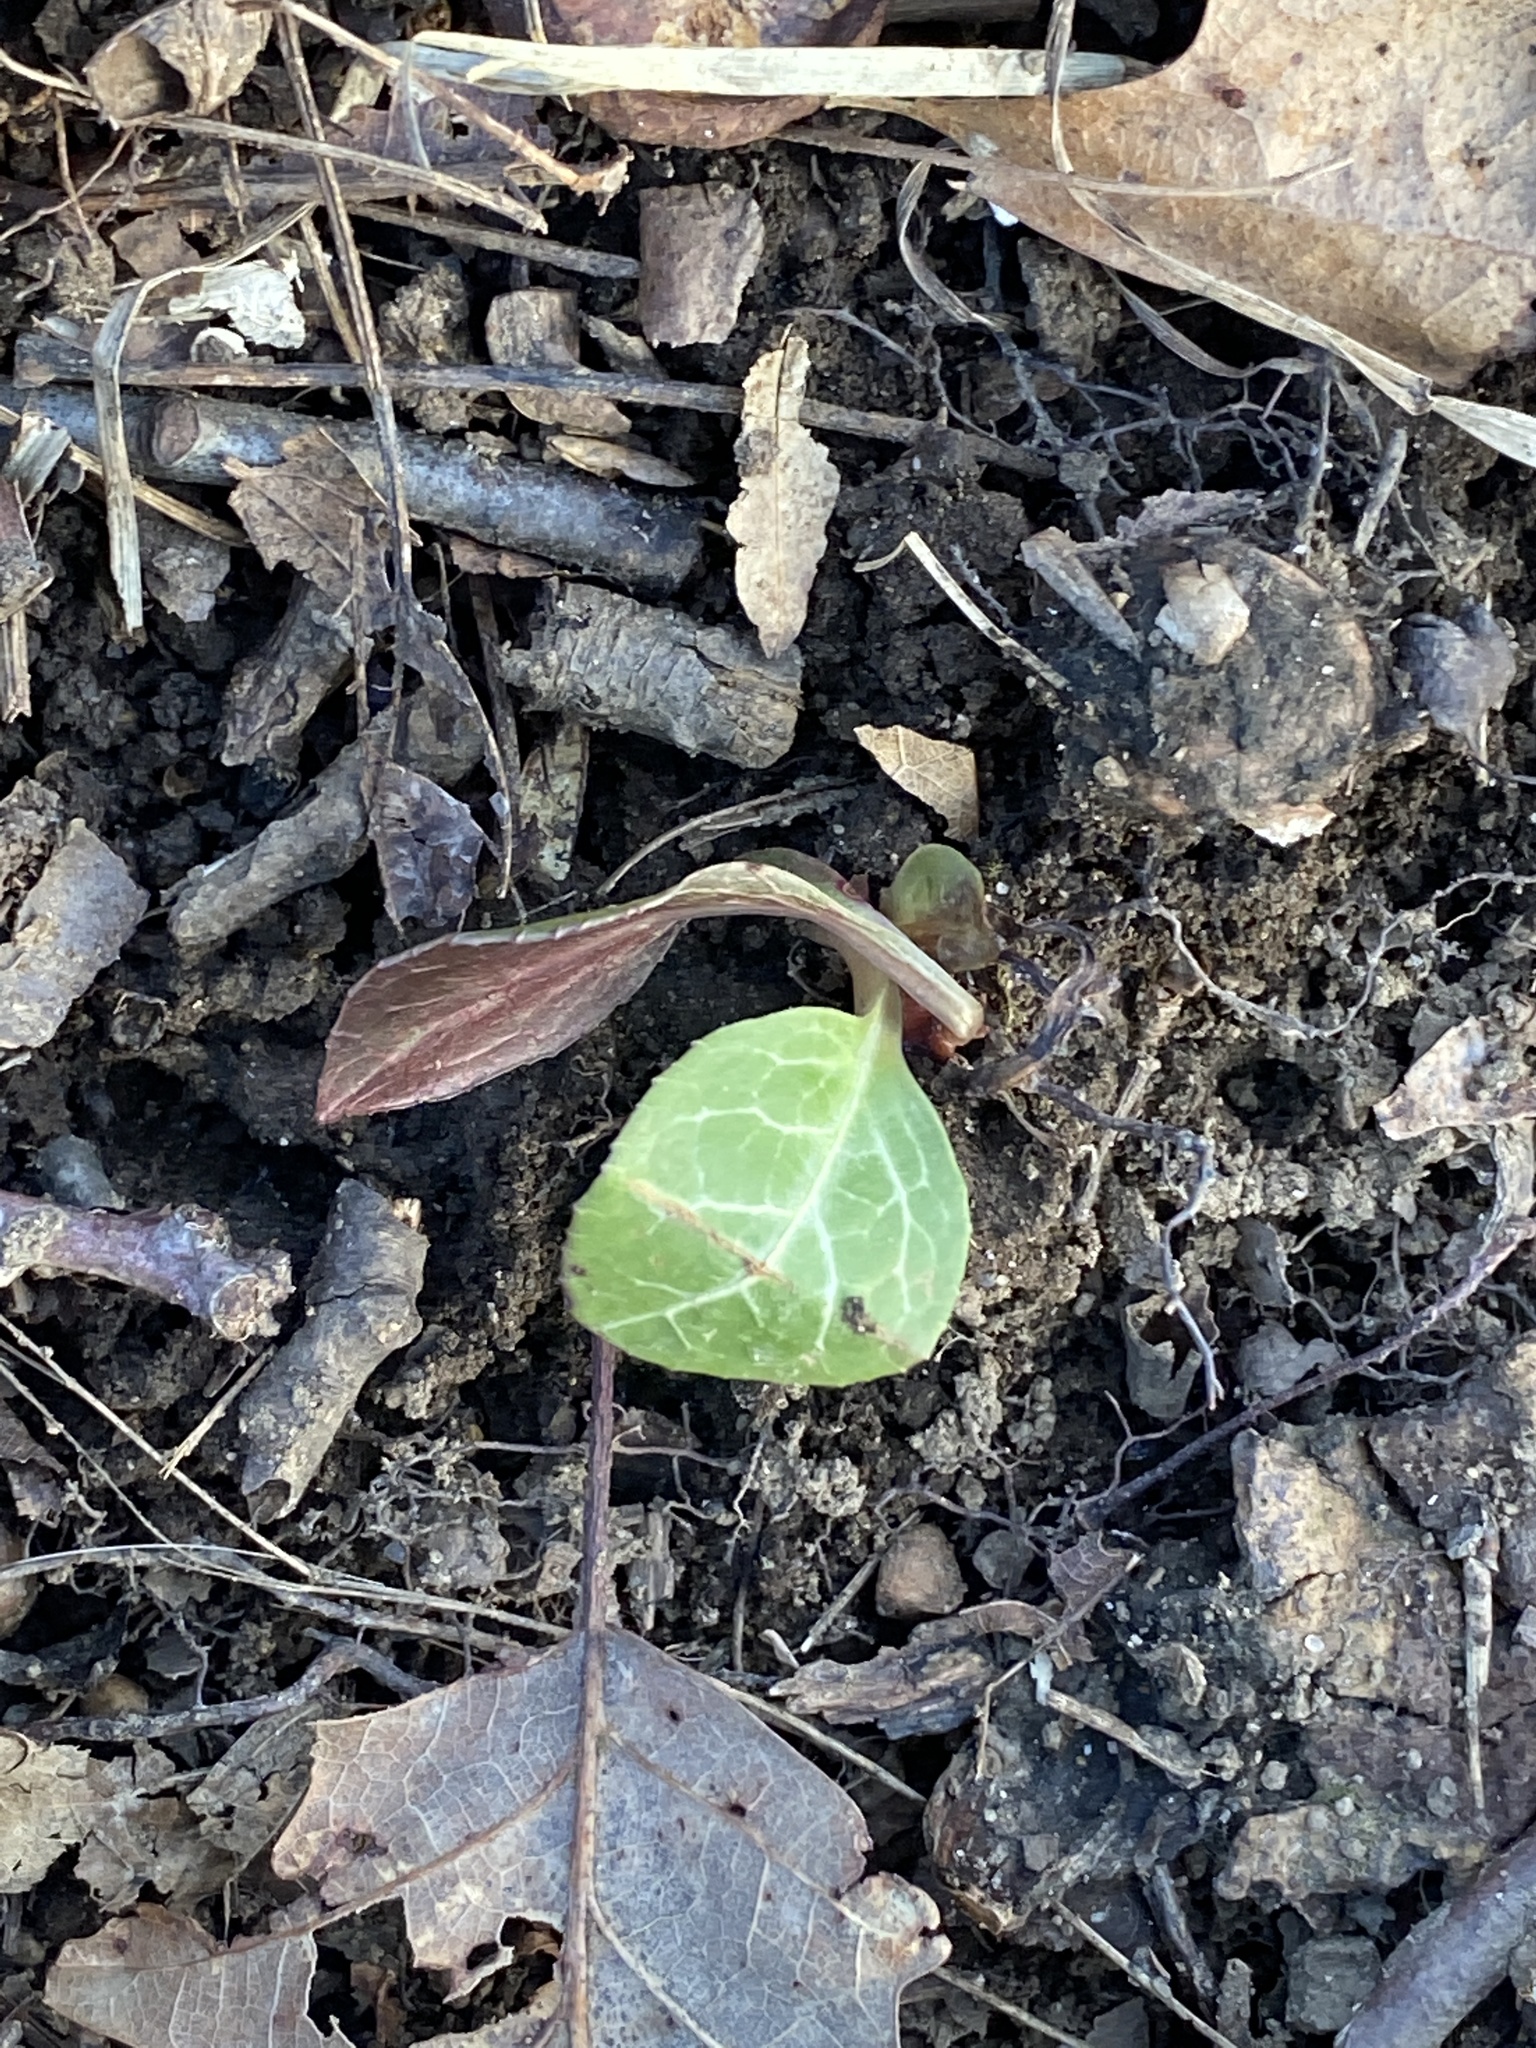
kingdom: Plantae
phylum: Tracheophyta
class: Magnoliopsida
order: Ericales
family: Ericaceae
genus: Pyrola
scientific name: Pyrola americana
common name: American wintergreen
